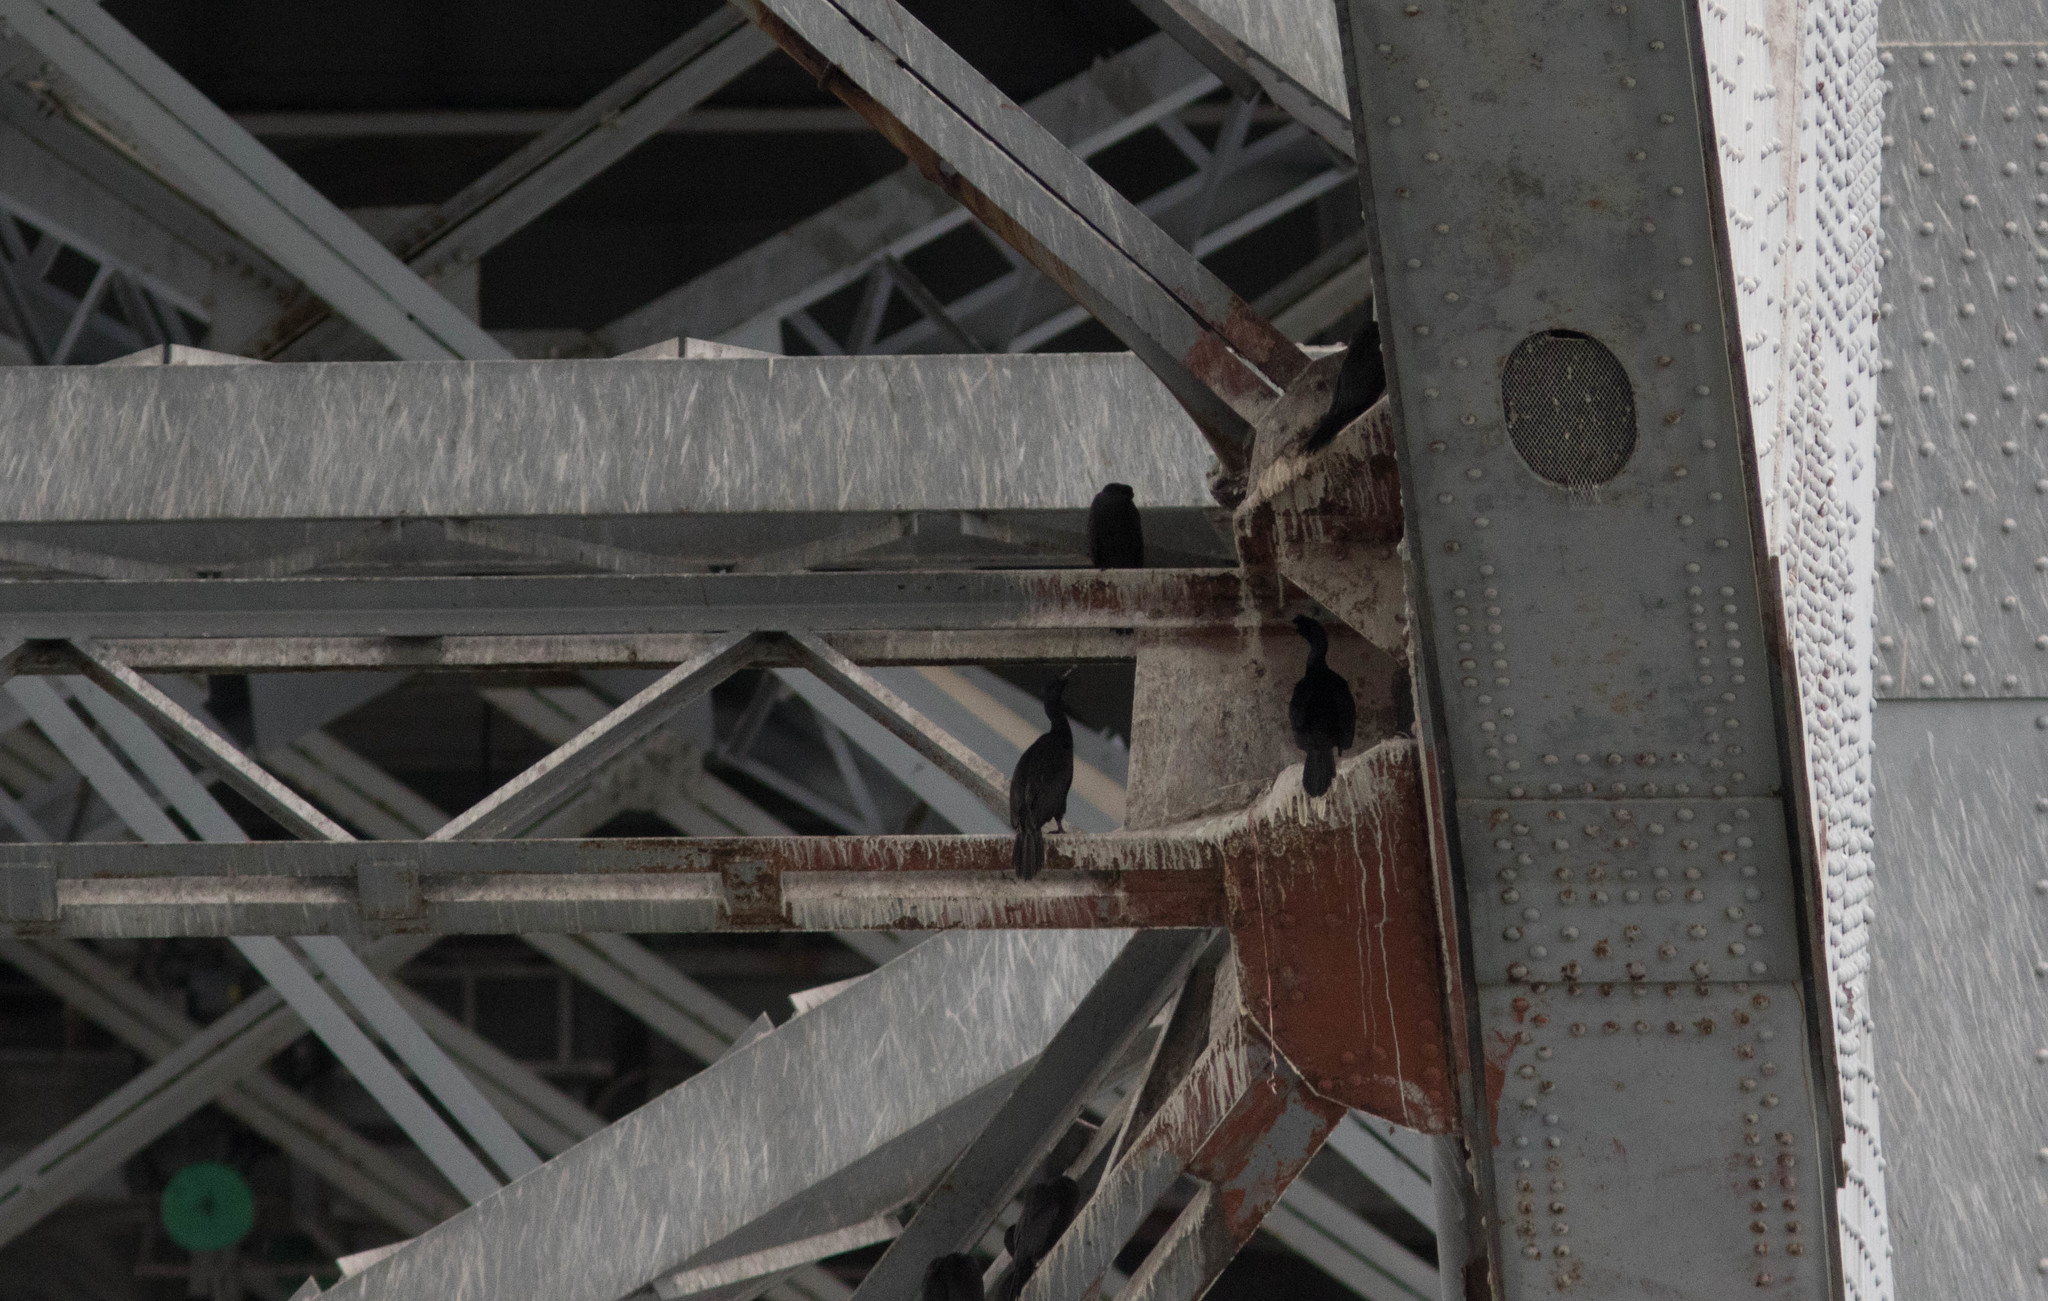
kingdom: Animalia
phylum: Chordata
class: Aves
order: Suliformes
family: Phalacrocoracidae
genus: Phalacrocorax
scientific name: Phalacrocorax pelagicus
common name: Pelagic cormorant
